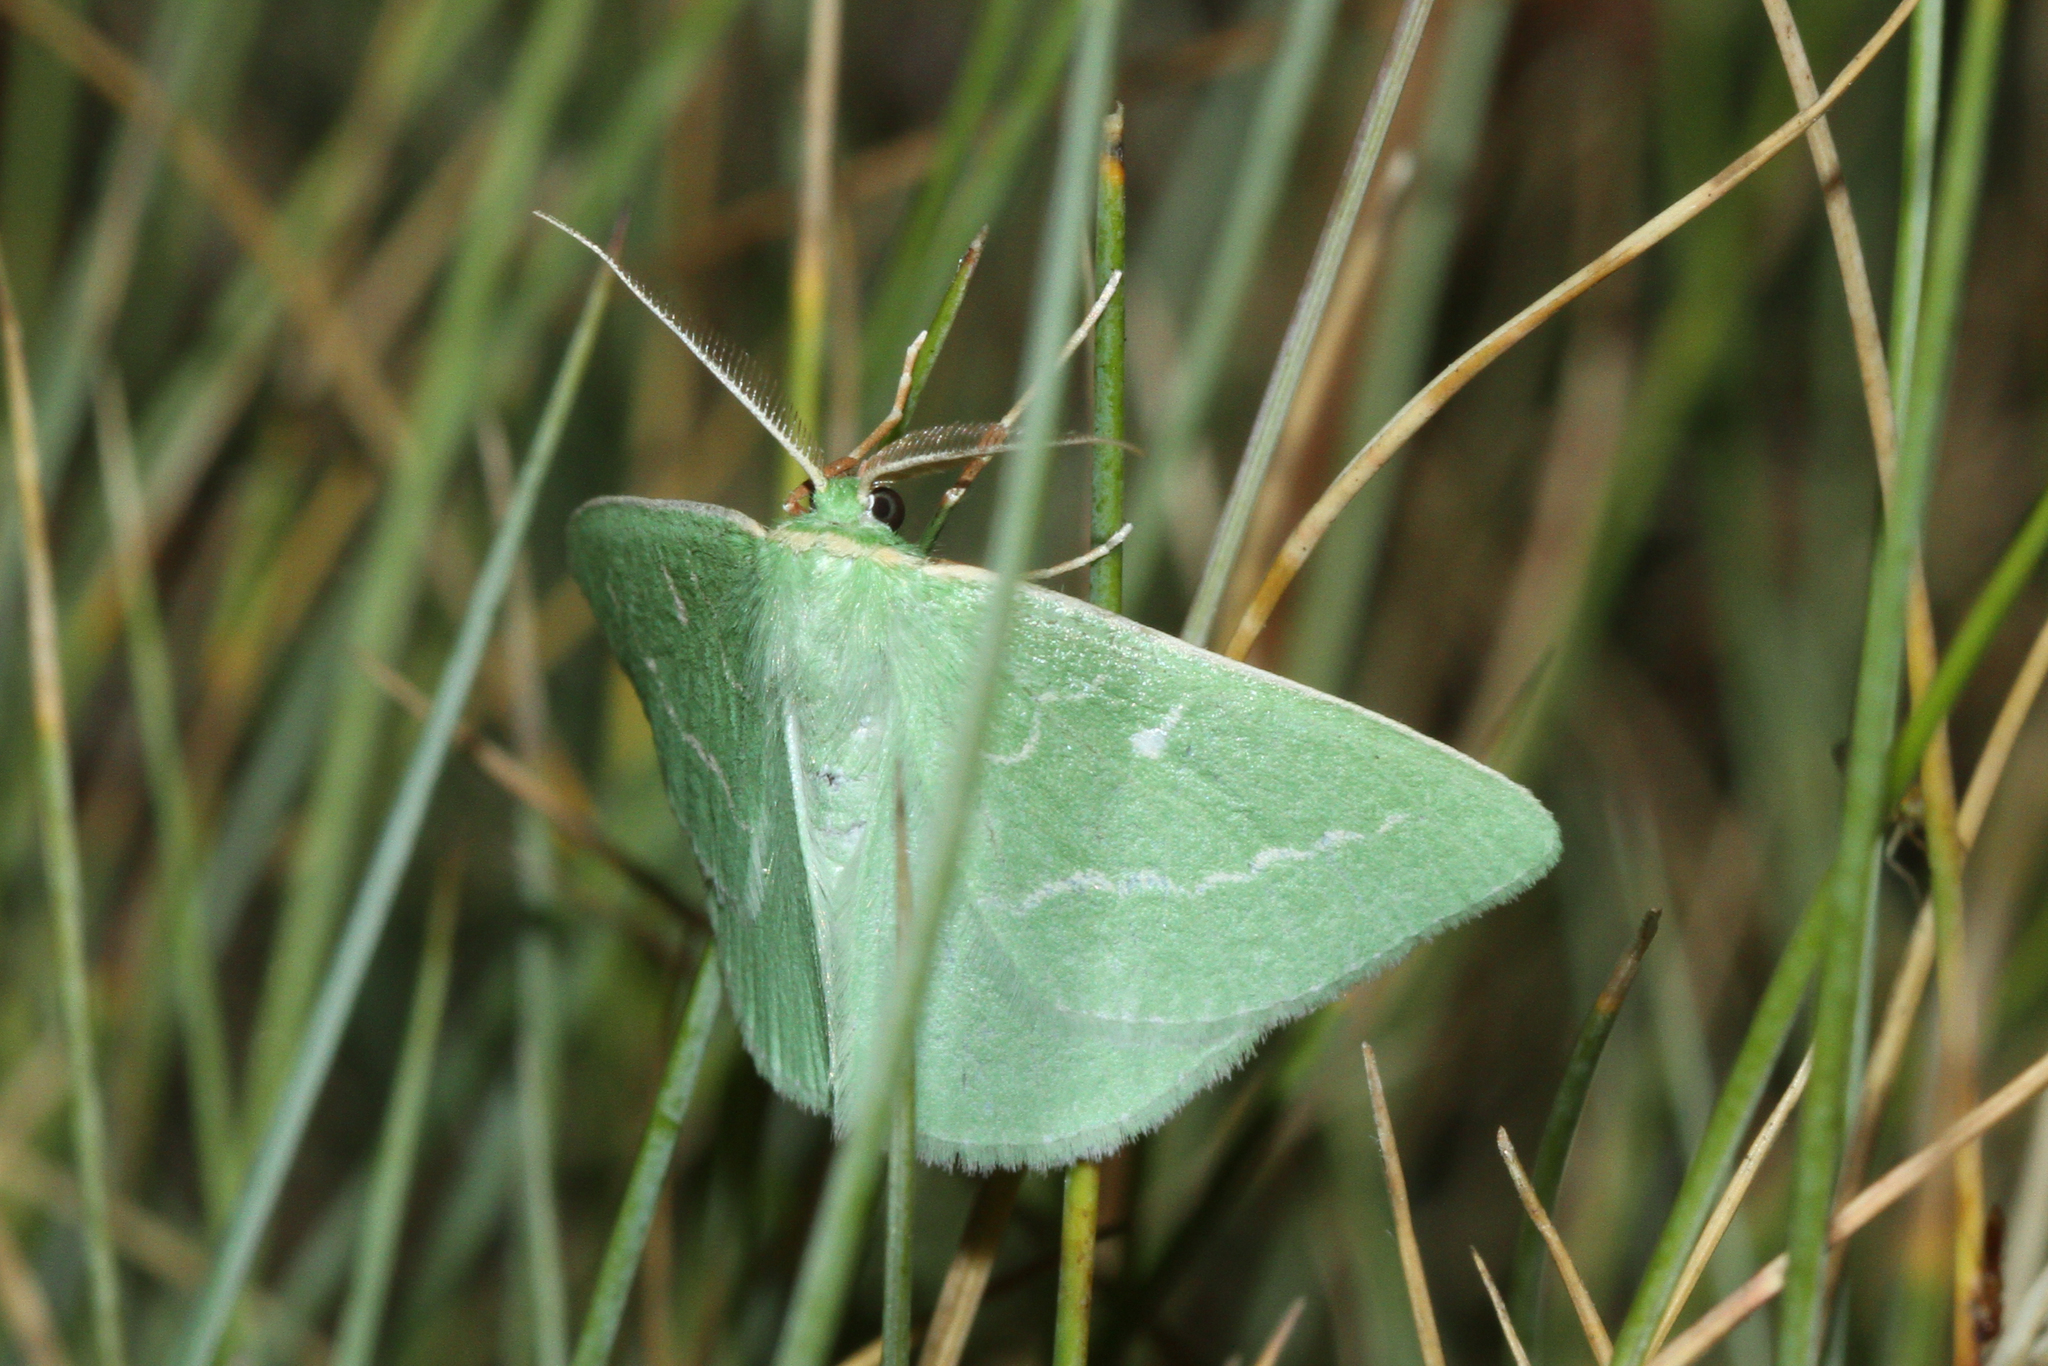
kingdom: Animalia
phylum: Arthropoda
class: Insecta
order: Lepidoptera
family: Geometridae
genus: Thetidia
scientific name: Thetidia smaragdaria
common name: Essex emerald
